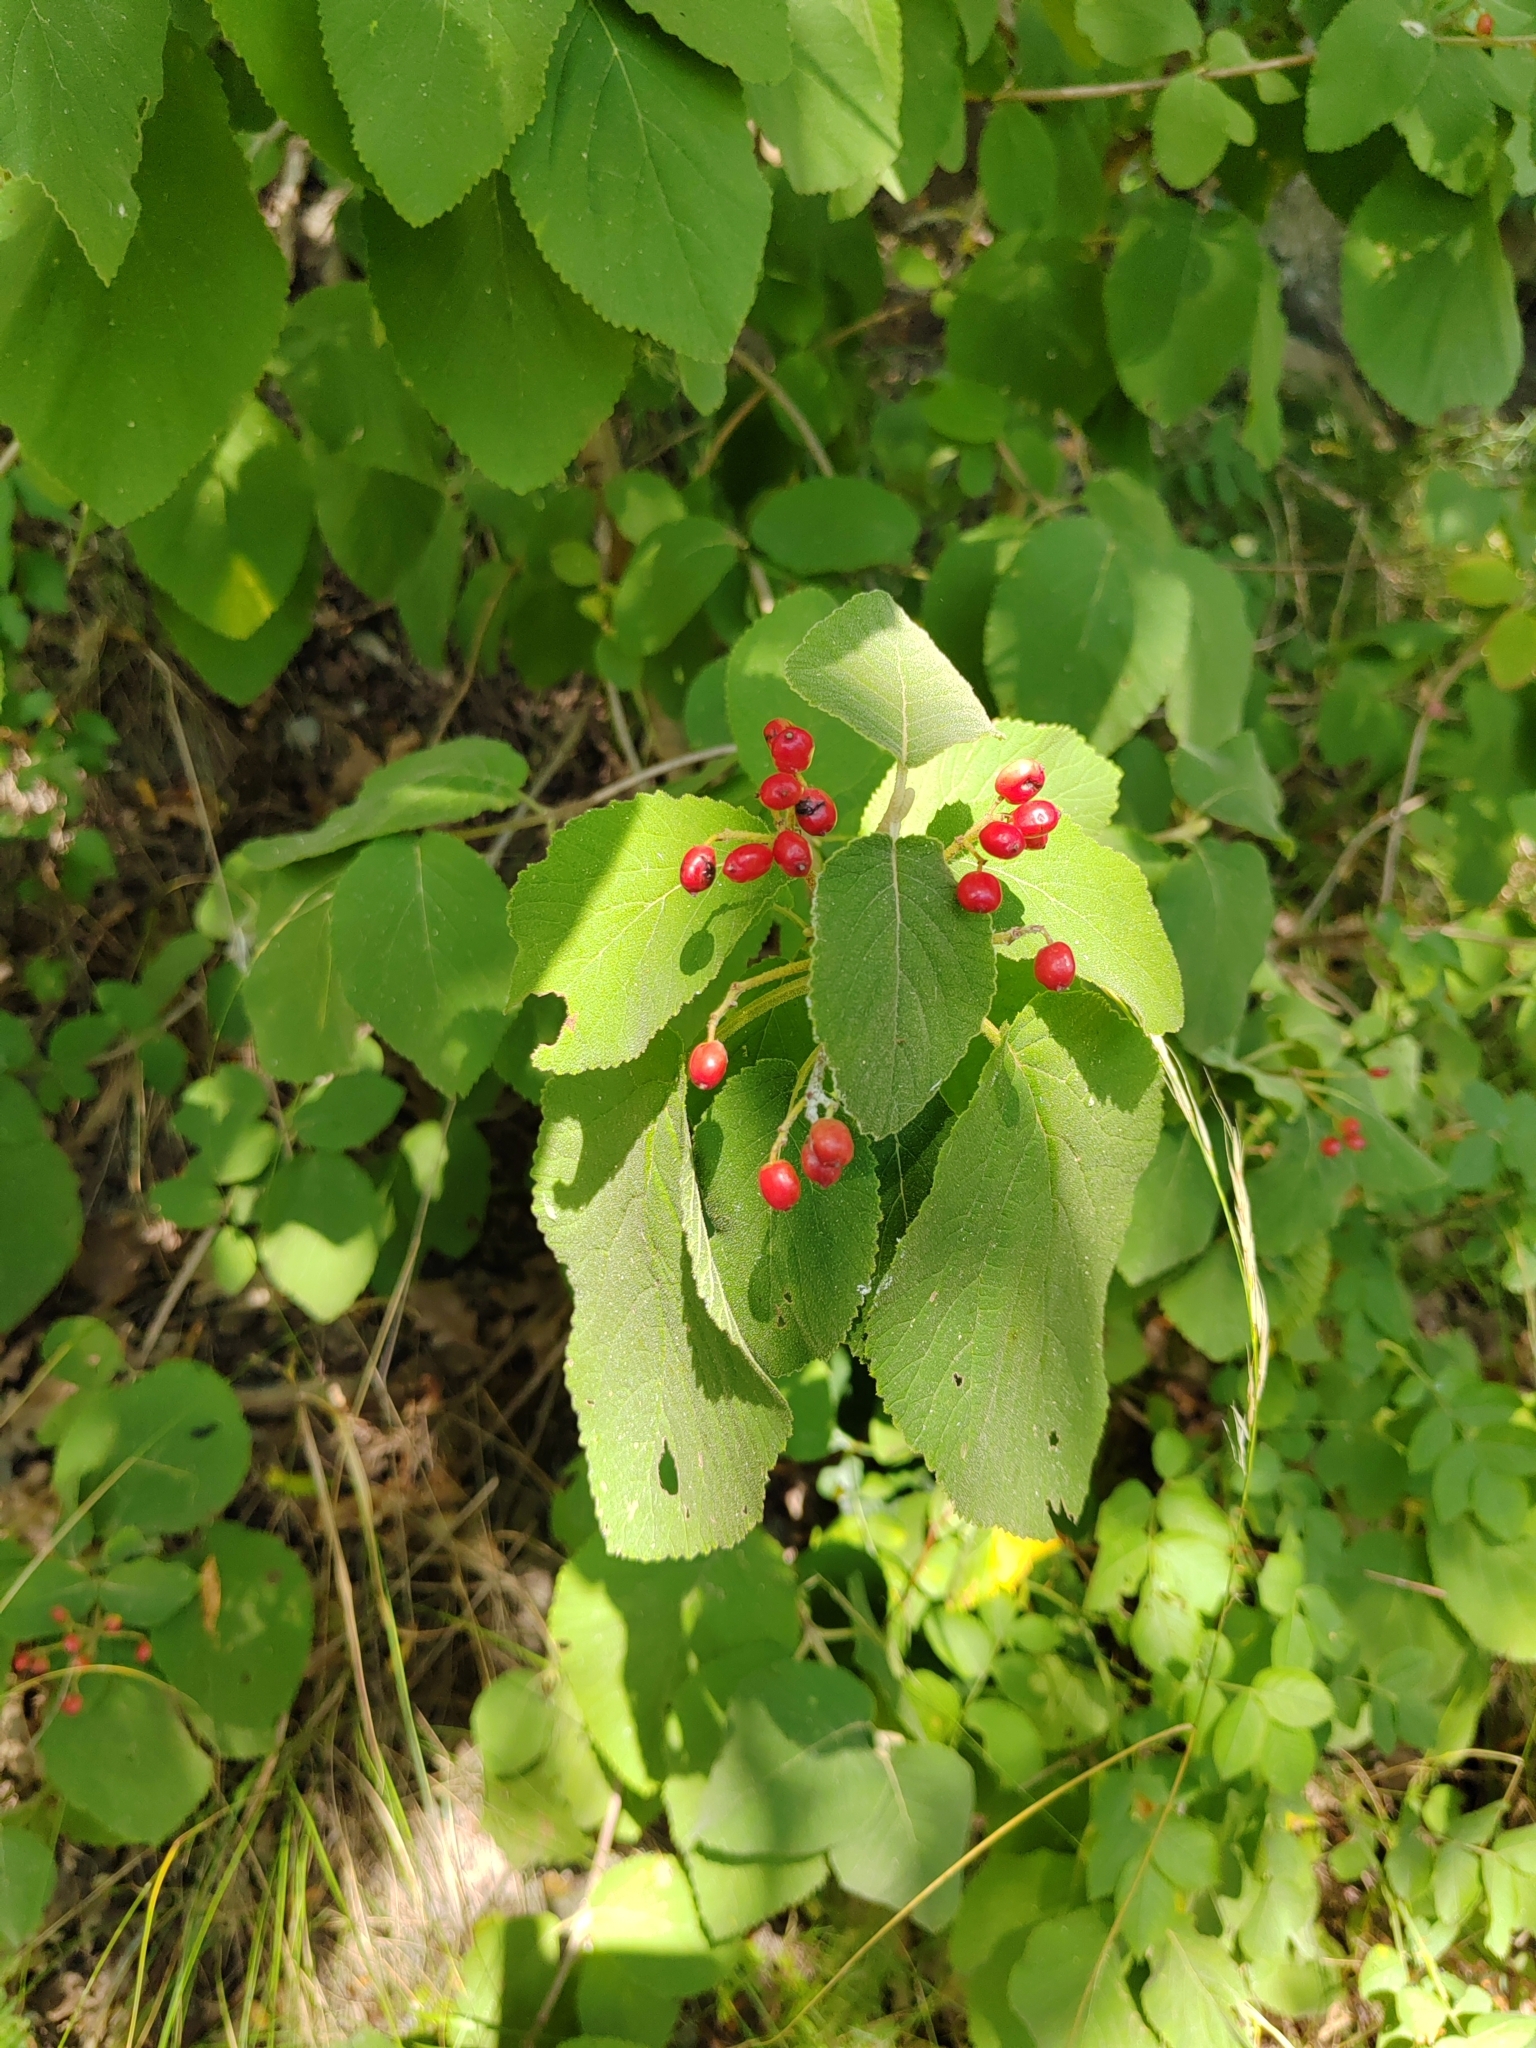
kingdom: Plantae
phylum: Tracheophyta
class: Magnoliopsida
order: Dipsacales
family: Viburnaceae
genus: Viburnum
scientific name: Viburnum lantana
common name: Wayfaring tree
